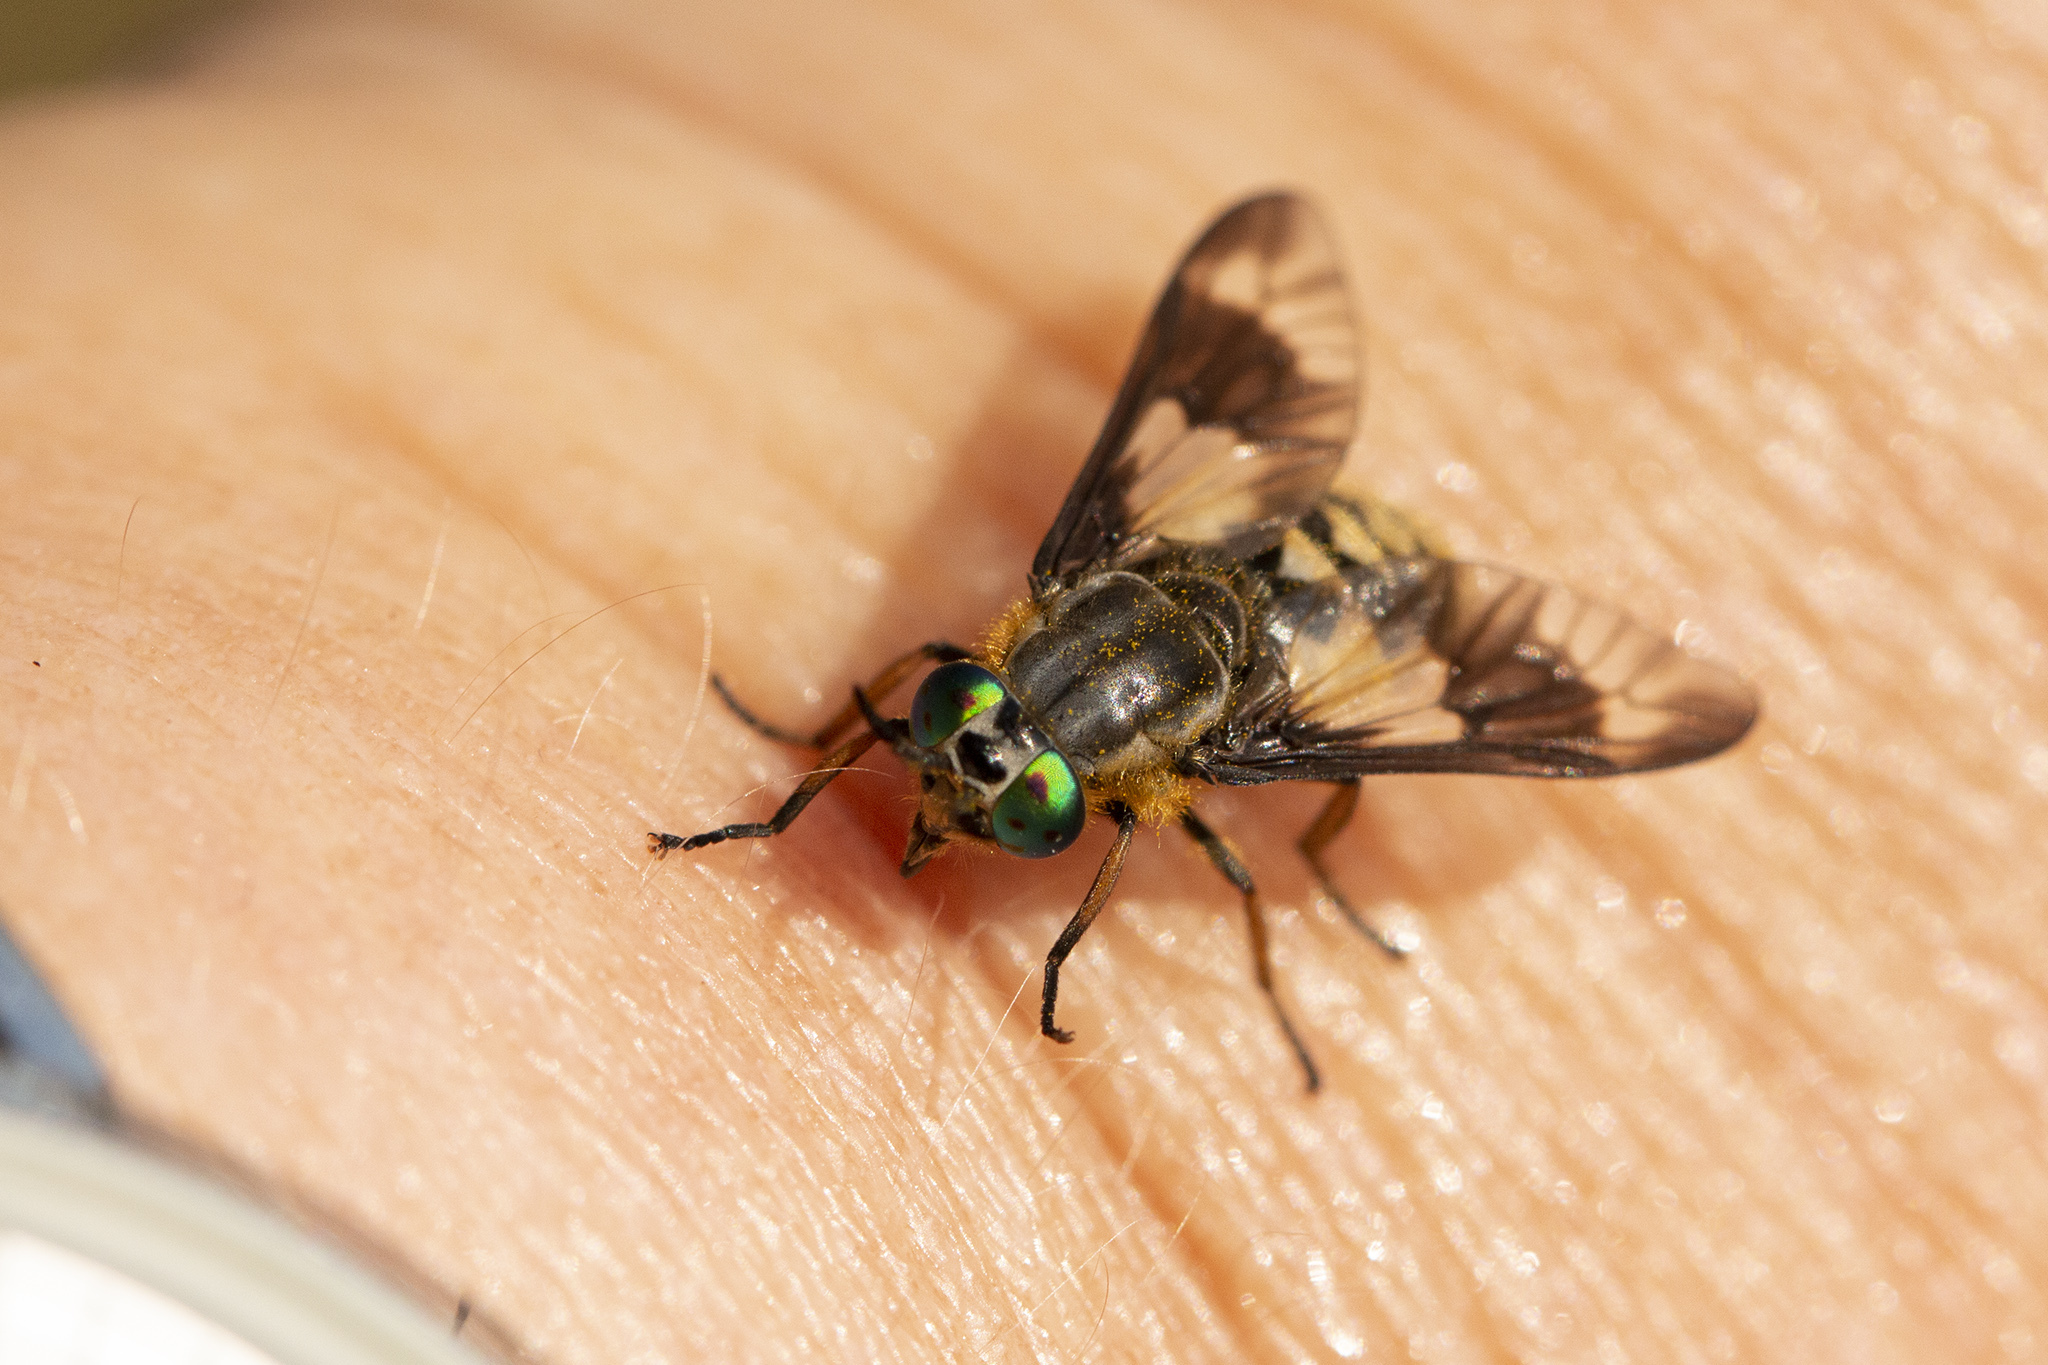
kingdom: Animalia
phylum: Arthropoda
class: Insecta
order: Diptera
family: Tabanidae
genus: Chrysops
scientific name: Chrysops relictus
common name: Twin-lobed deerfly
